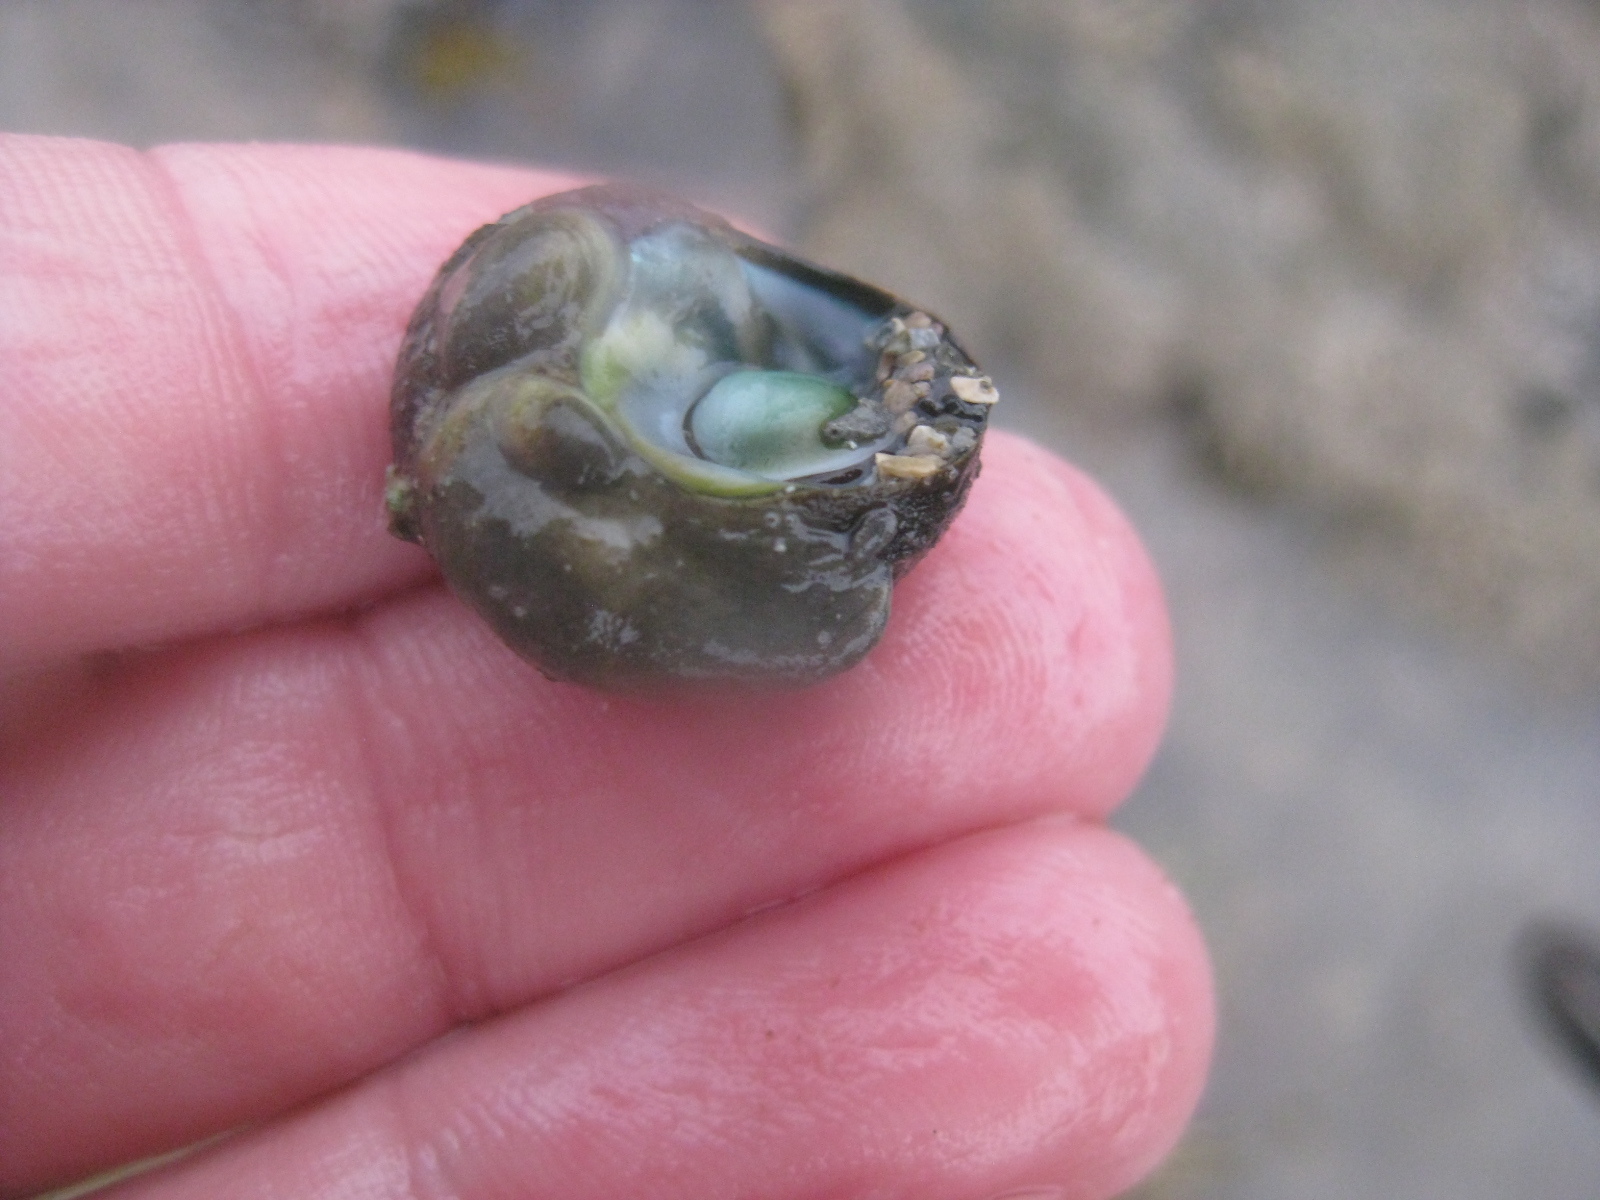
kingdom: Animalia
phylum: Mollusca
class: Gastropoda
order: Littorinimorpha
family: Calyptraeidae
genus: Maoricrypta
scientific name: Maoricrypta monoxyla
